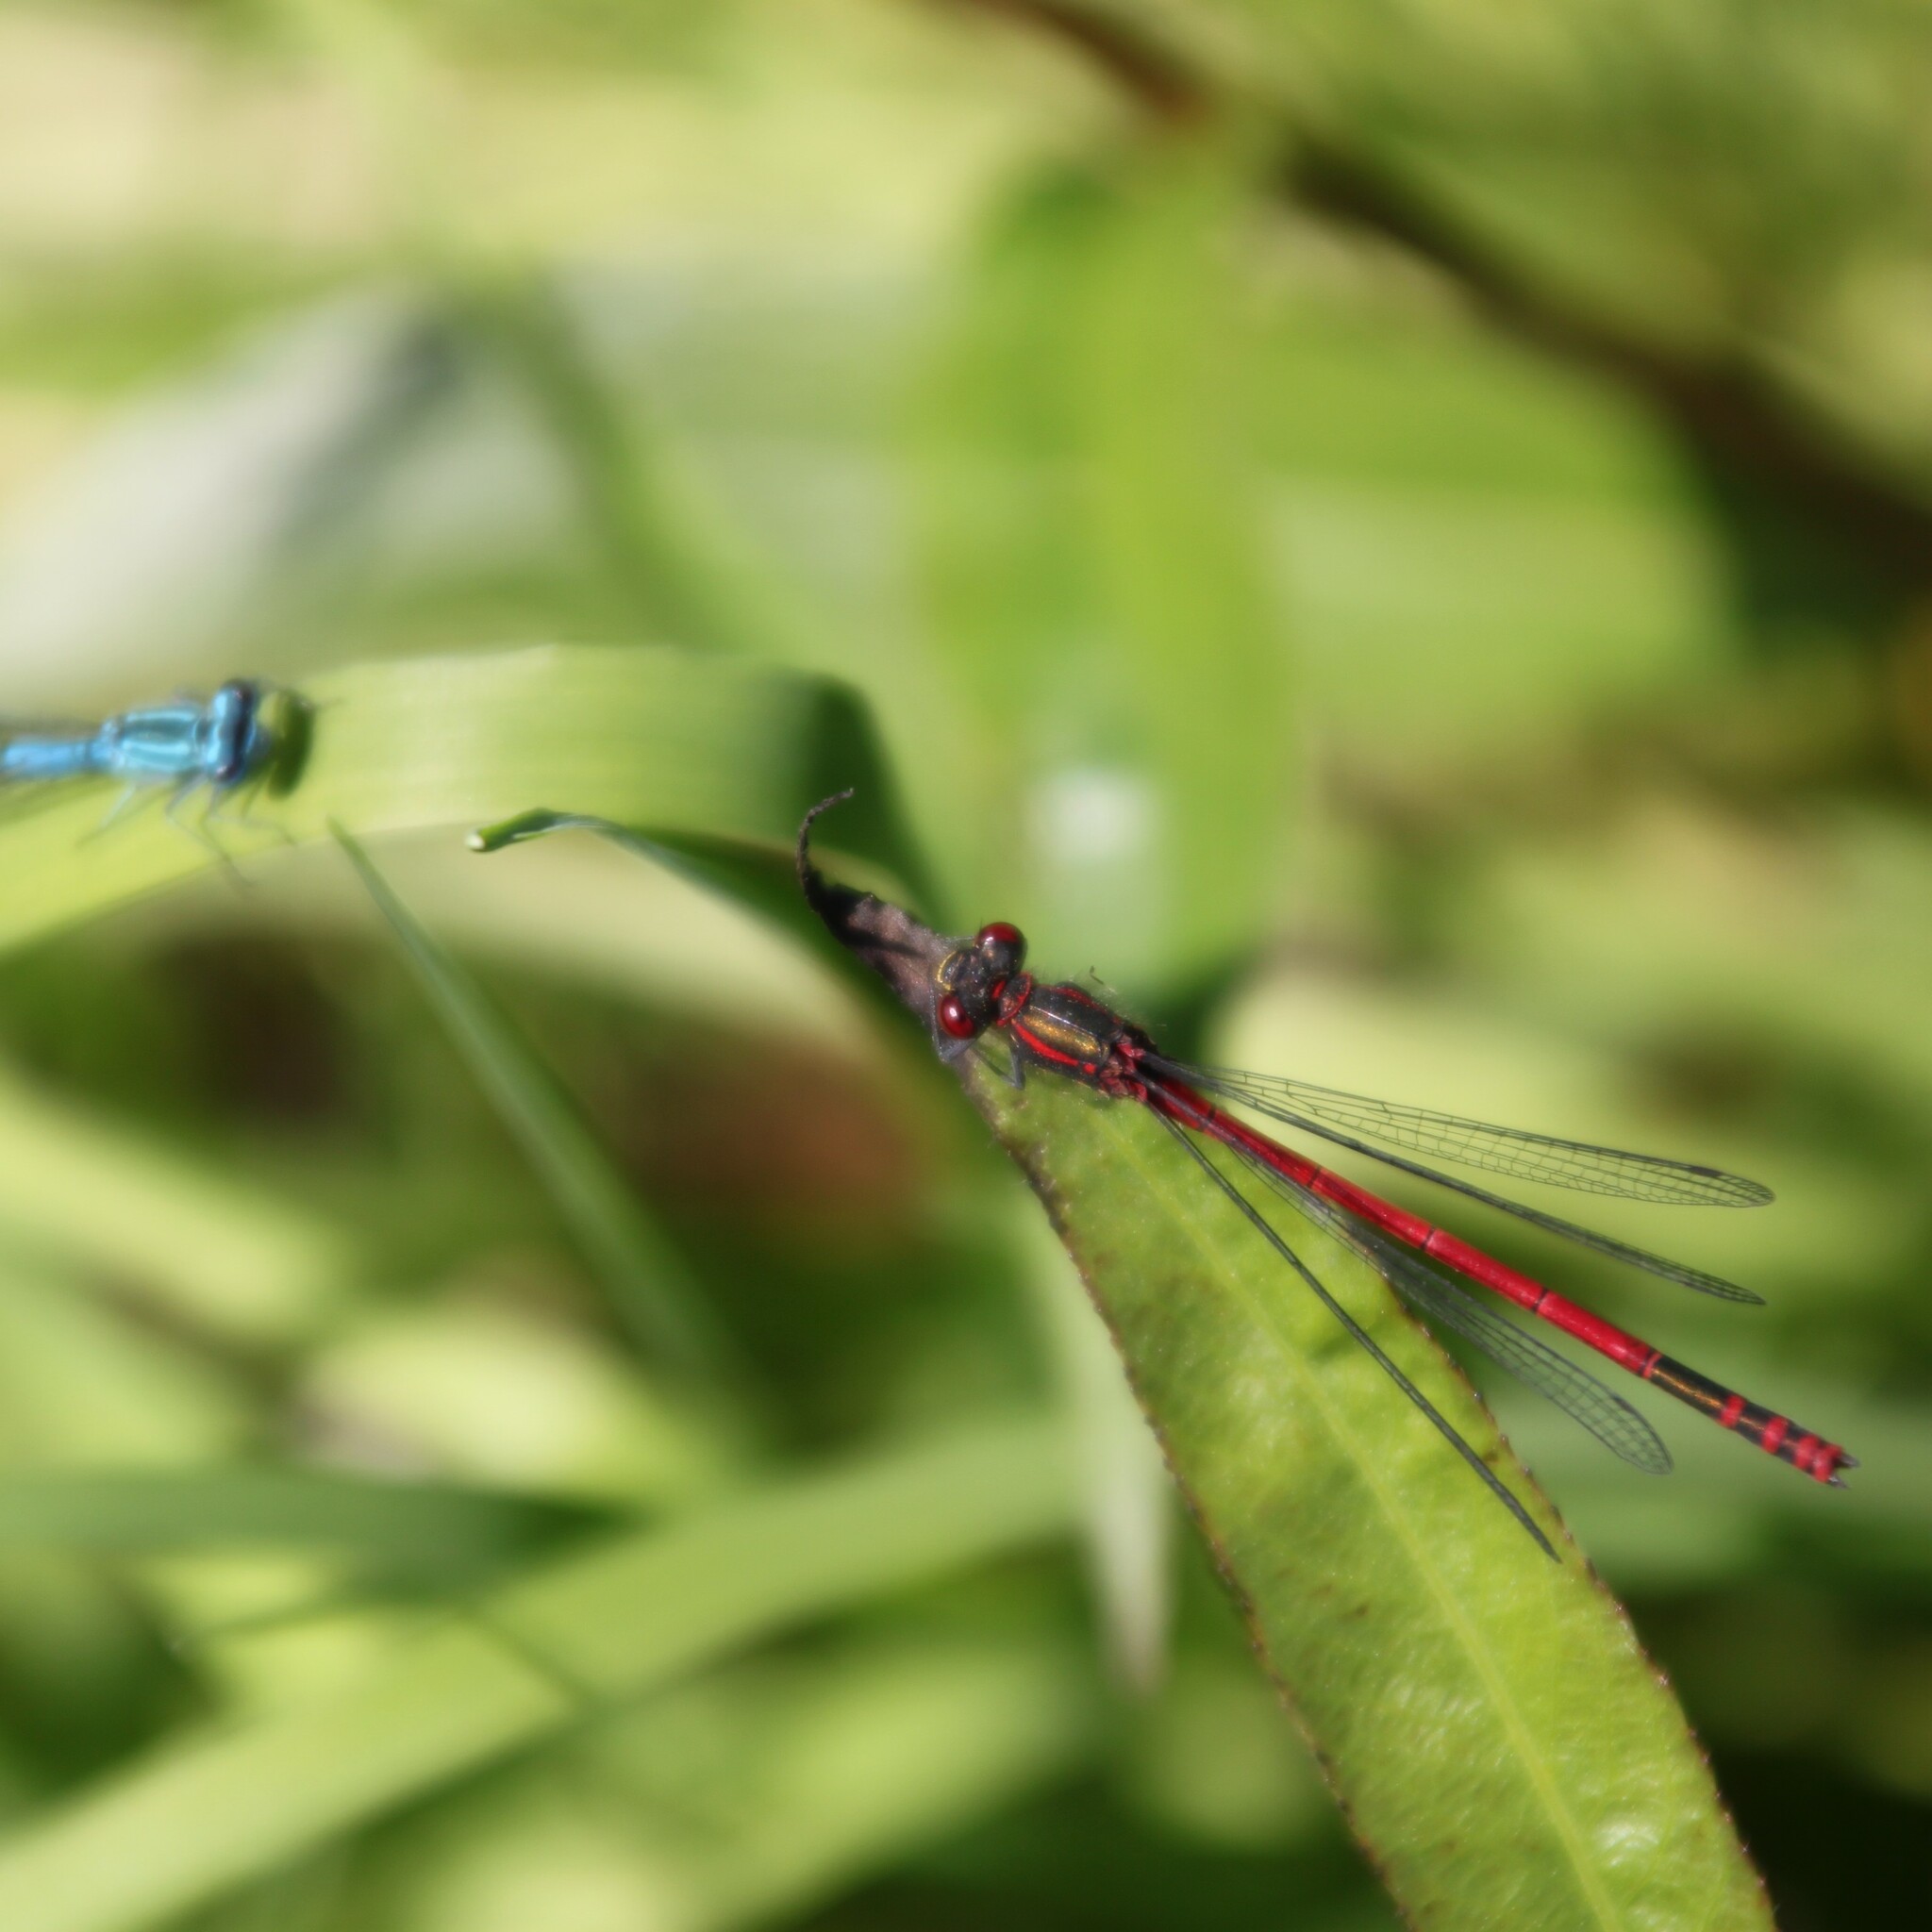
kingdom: Animalia
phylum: Arthropoda
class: Insecta
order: Odonata
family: Coenagrionidae
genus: Pyrrhosoma
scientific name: Pyrrhosoma nymphula
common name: Large red damsel
